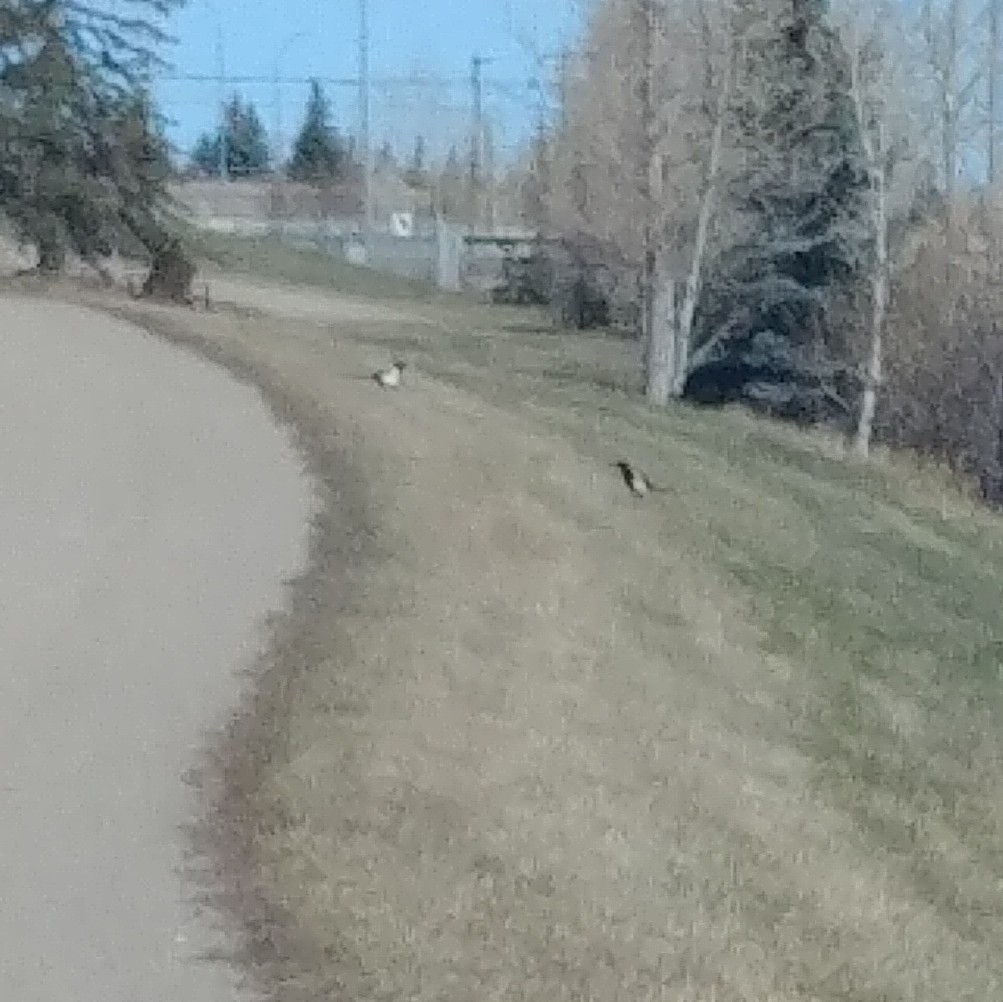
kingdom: Animalia
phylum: Chordata
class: Aves
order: Passeriformes
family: Corvidae
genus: Pica
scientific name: Pica hudsonia
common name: Black-billed magpie
